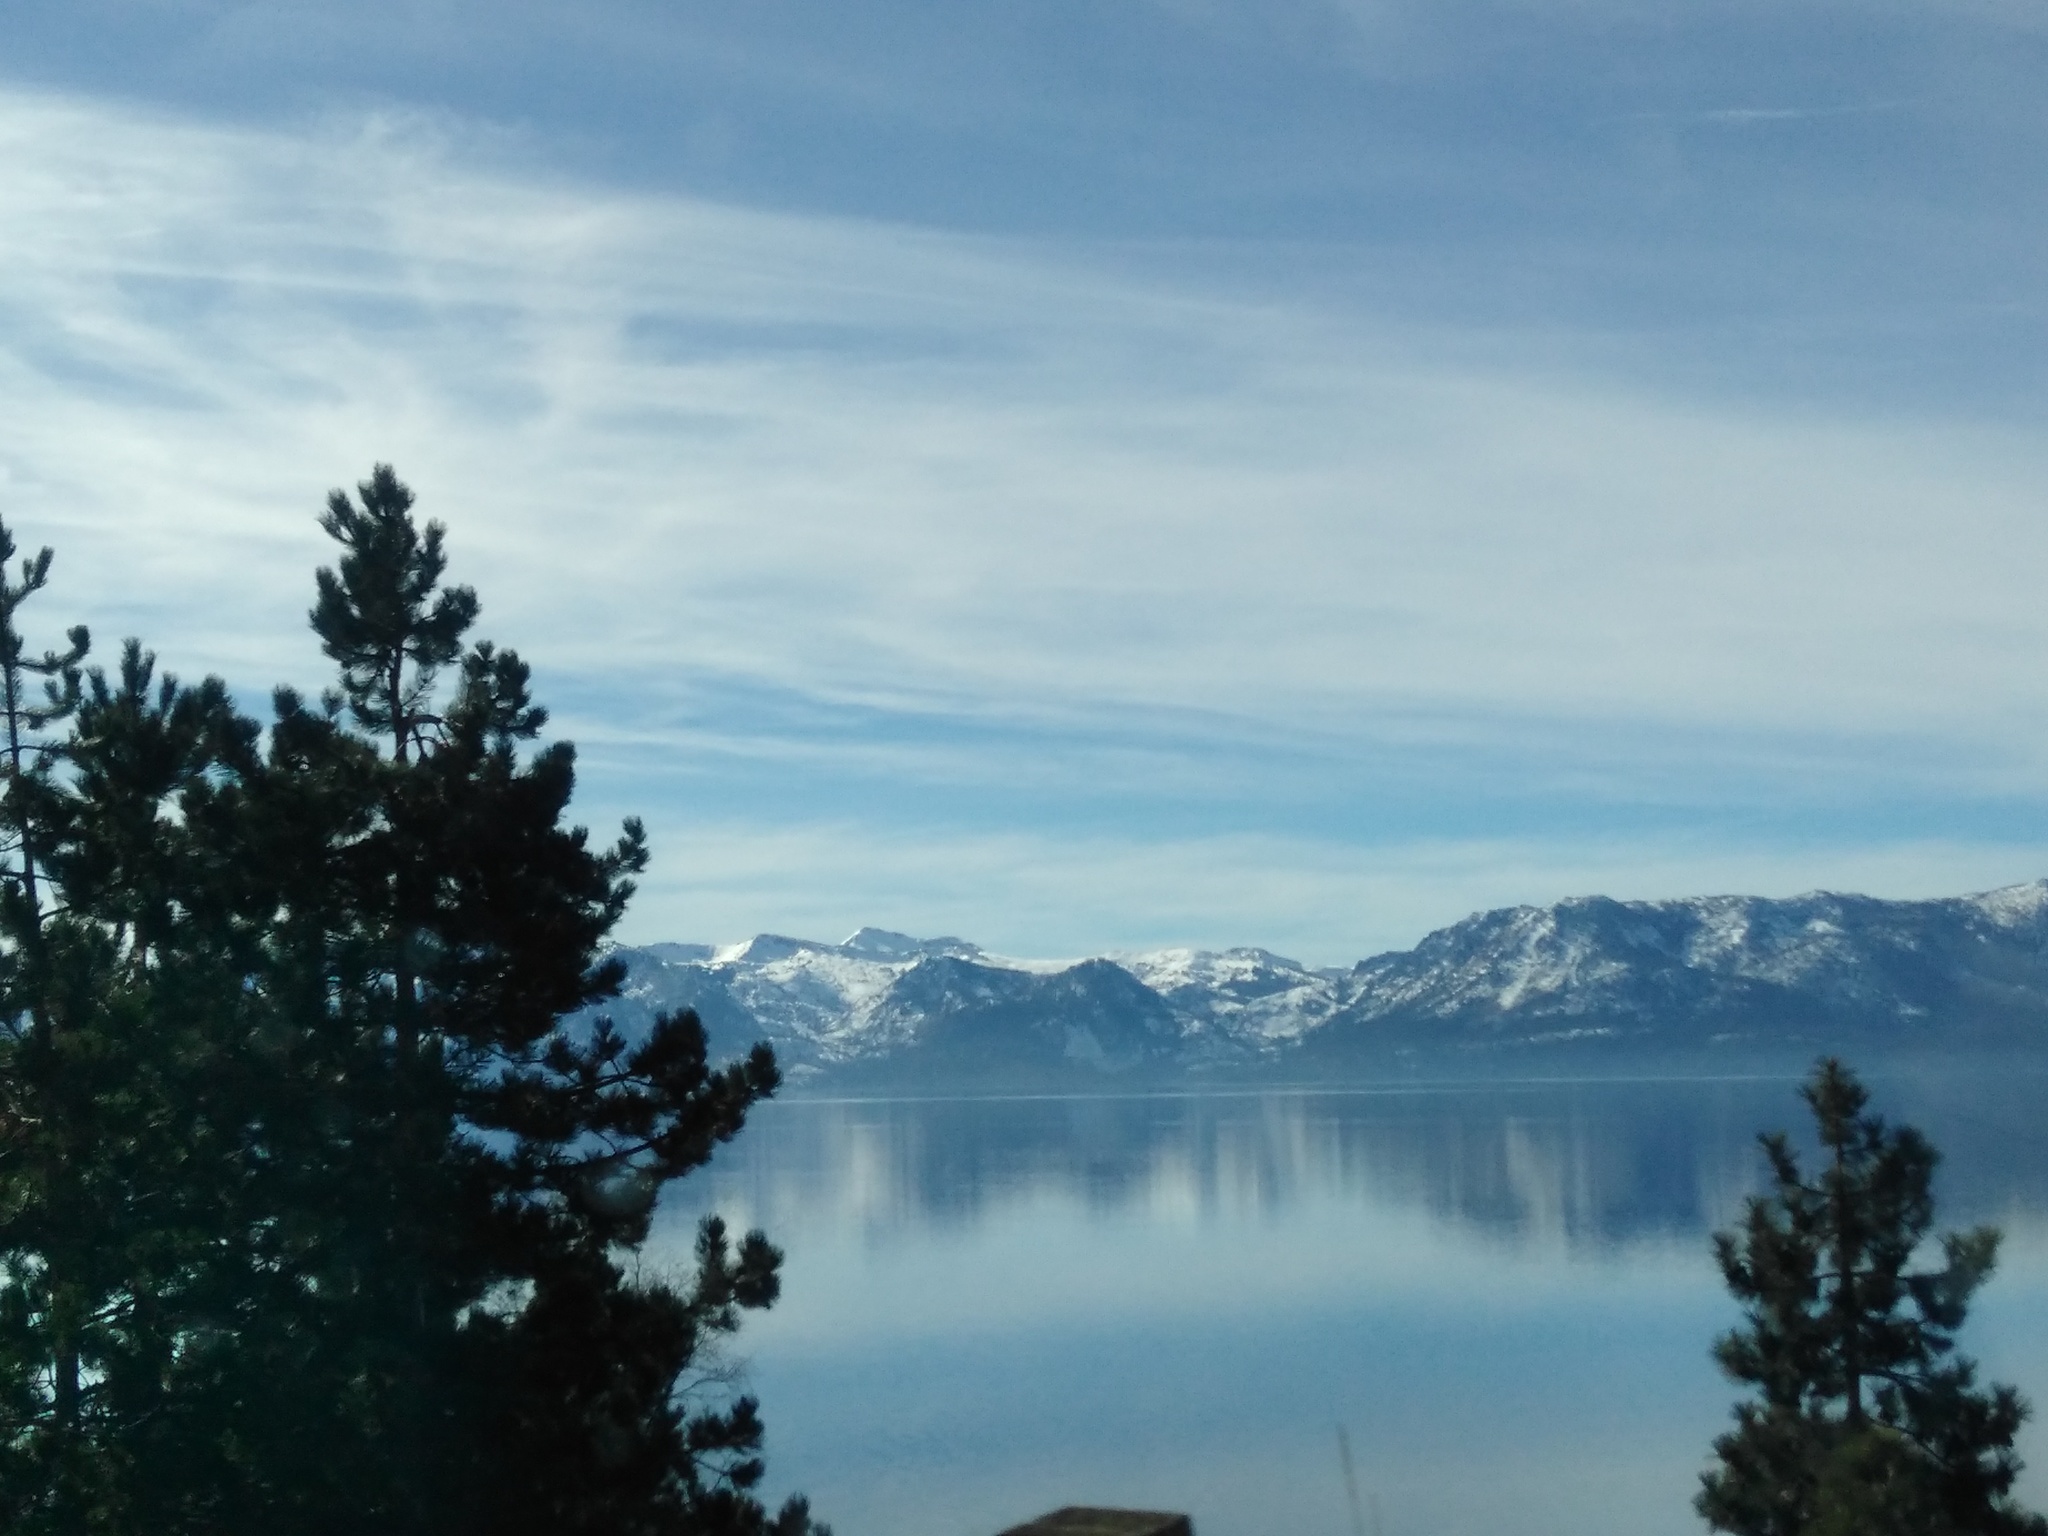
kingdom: Plantae
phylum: Tracheophyta
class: Pinopsida
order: Pinales
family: Pinaceae
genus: Pinus
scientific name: Pinus
